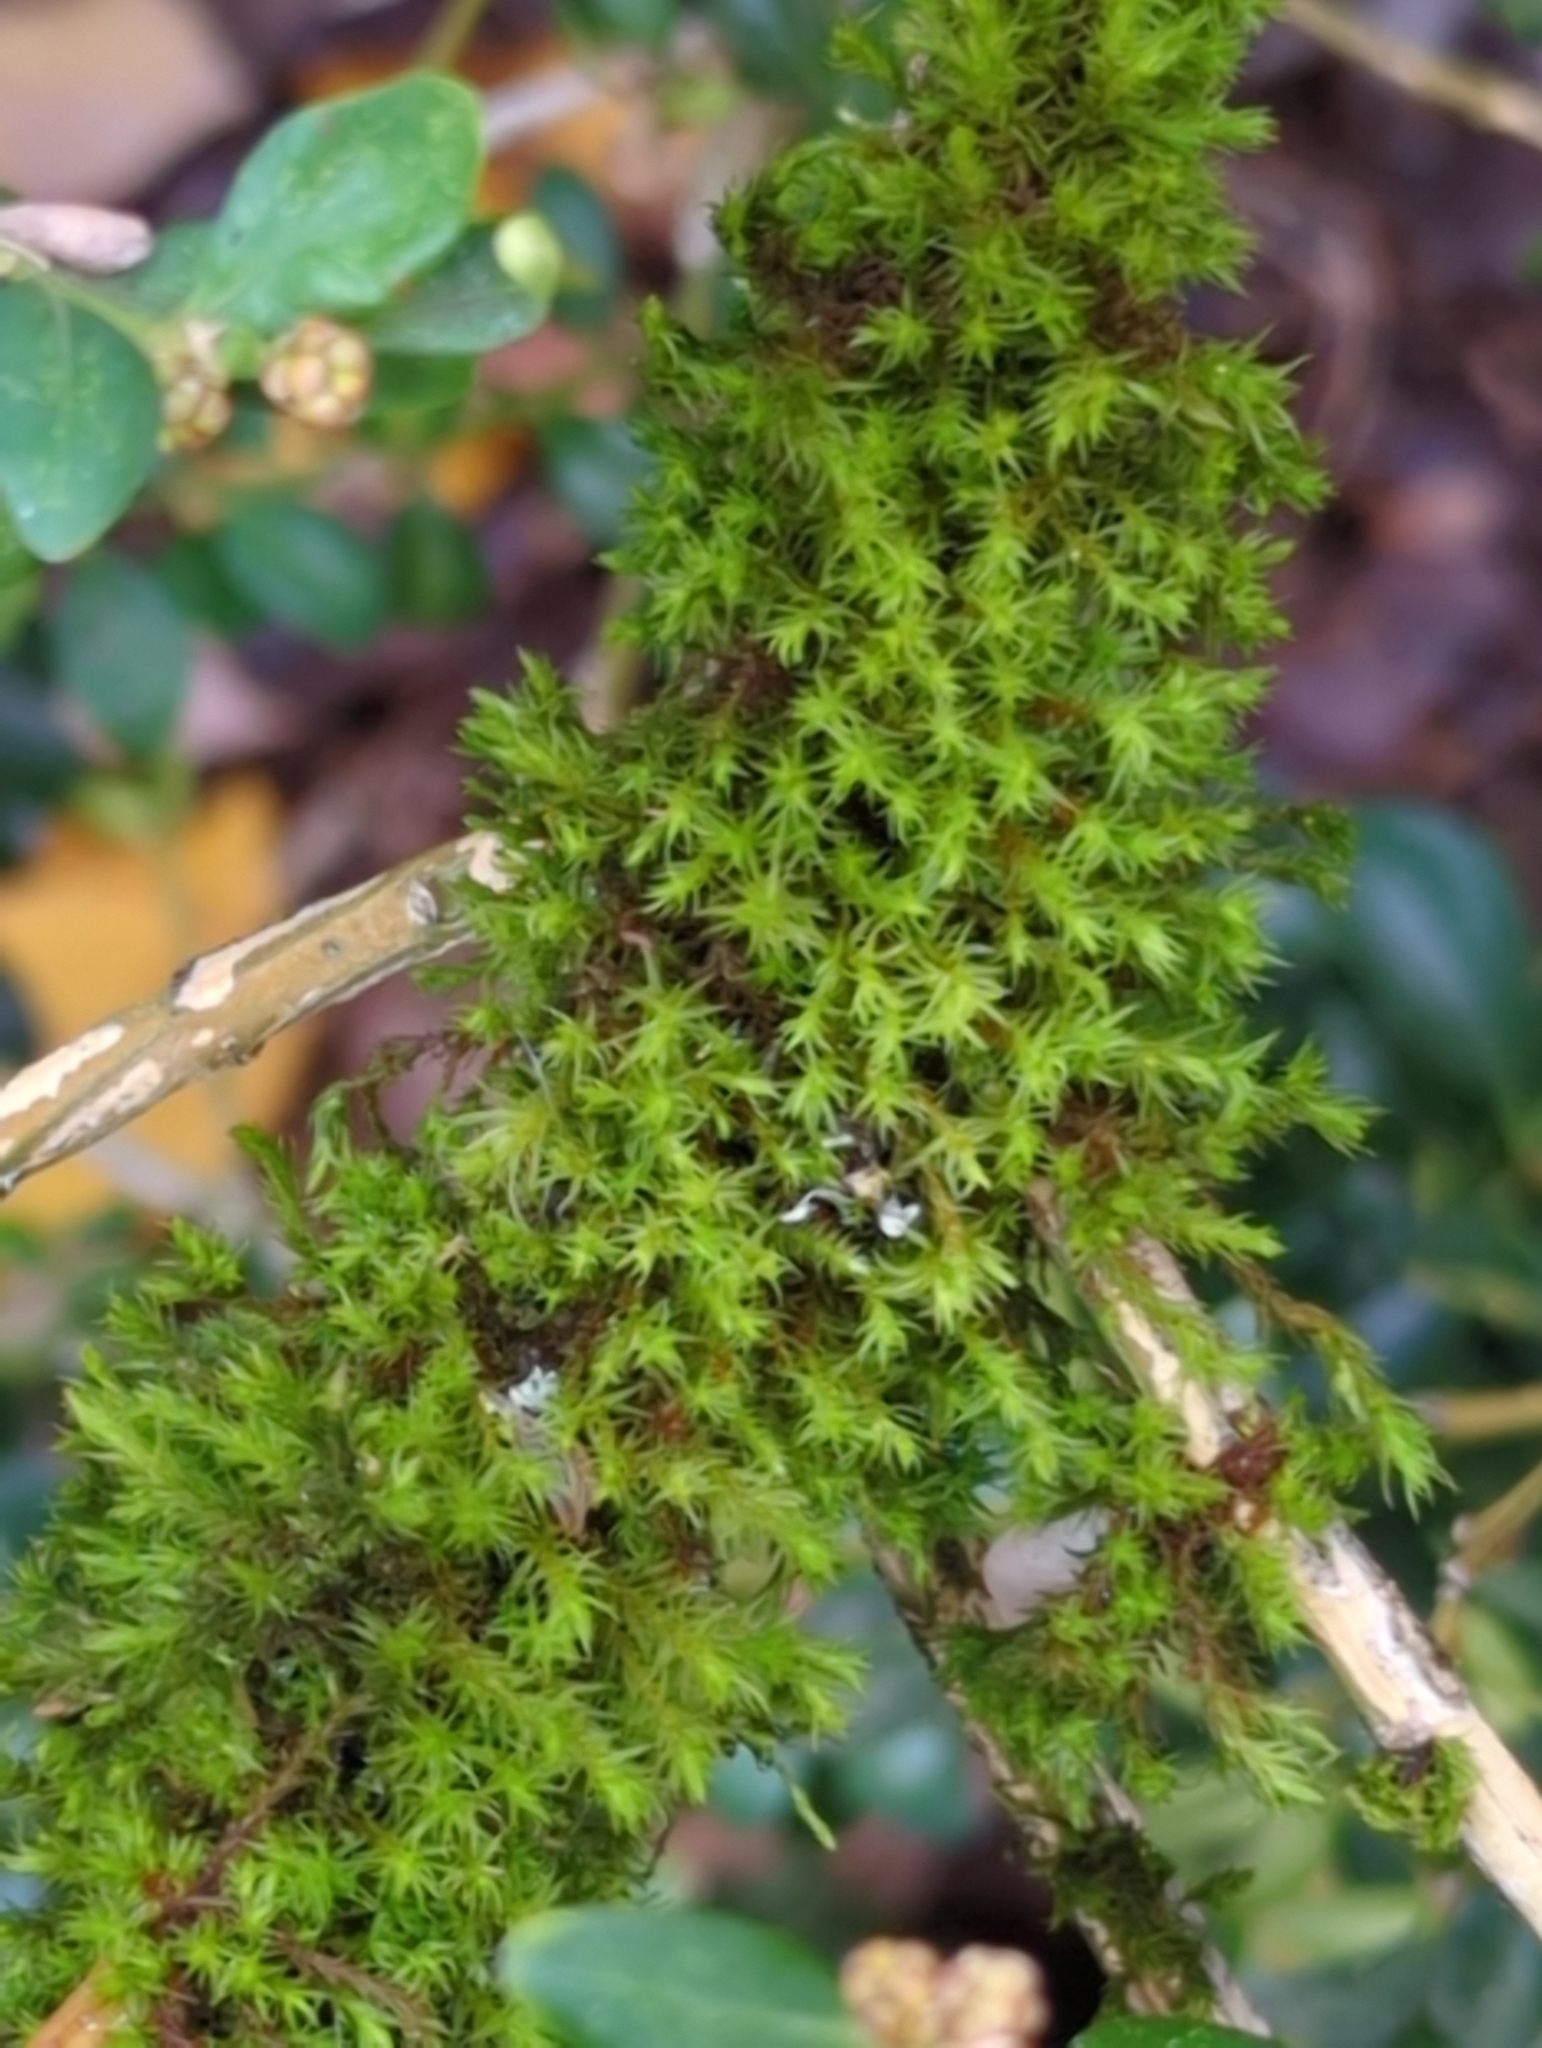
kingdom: Plantae
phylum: Bryophyta
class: Bryopsida
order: Orthotrichales
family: Orthotrichaceae
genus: Pulvigera
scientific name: Pulvigera lyellii
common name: Lyell's bristle-moss
